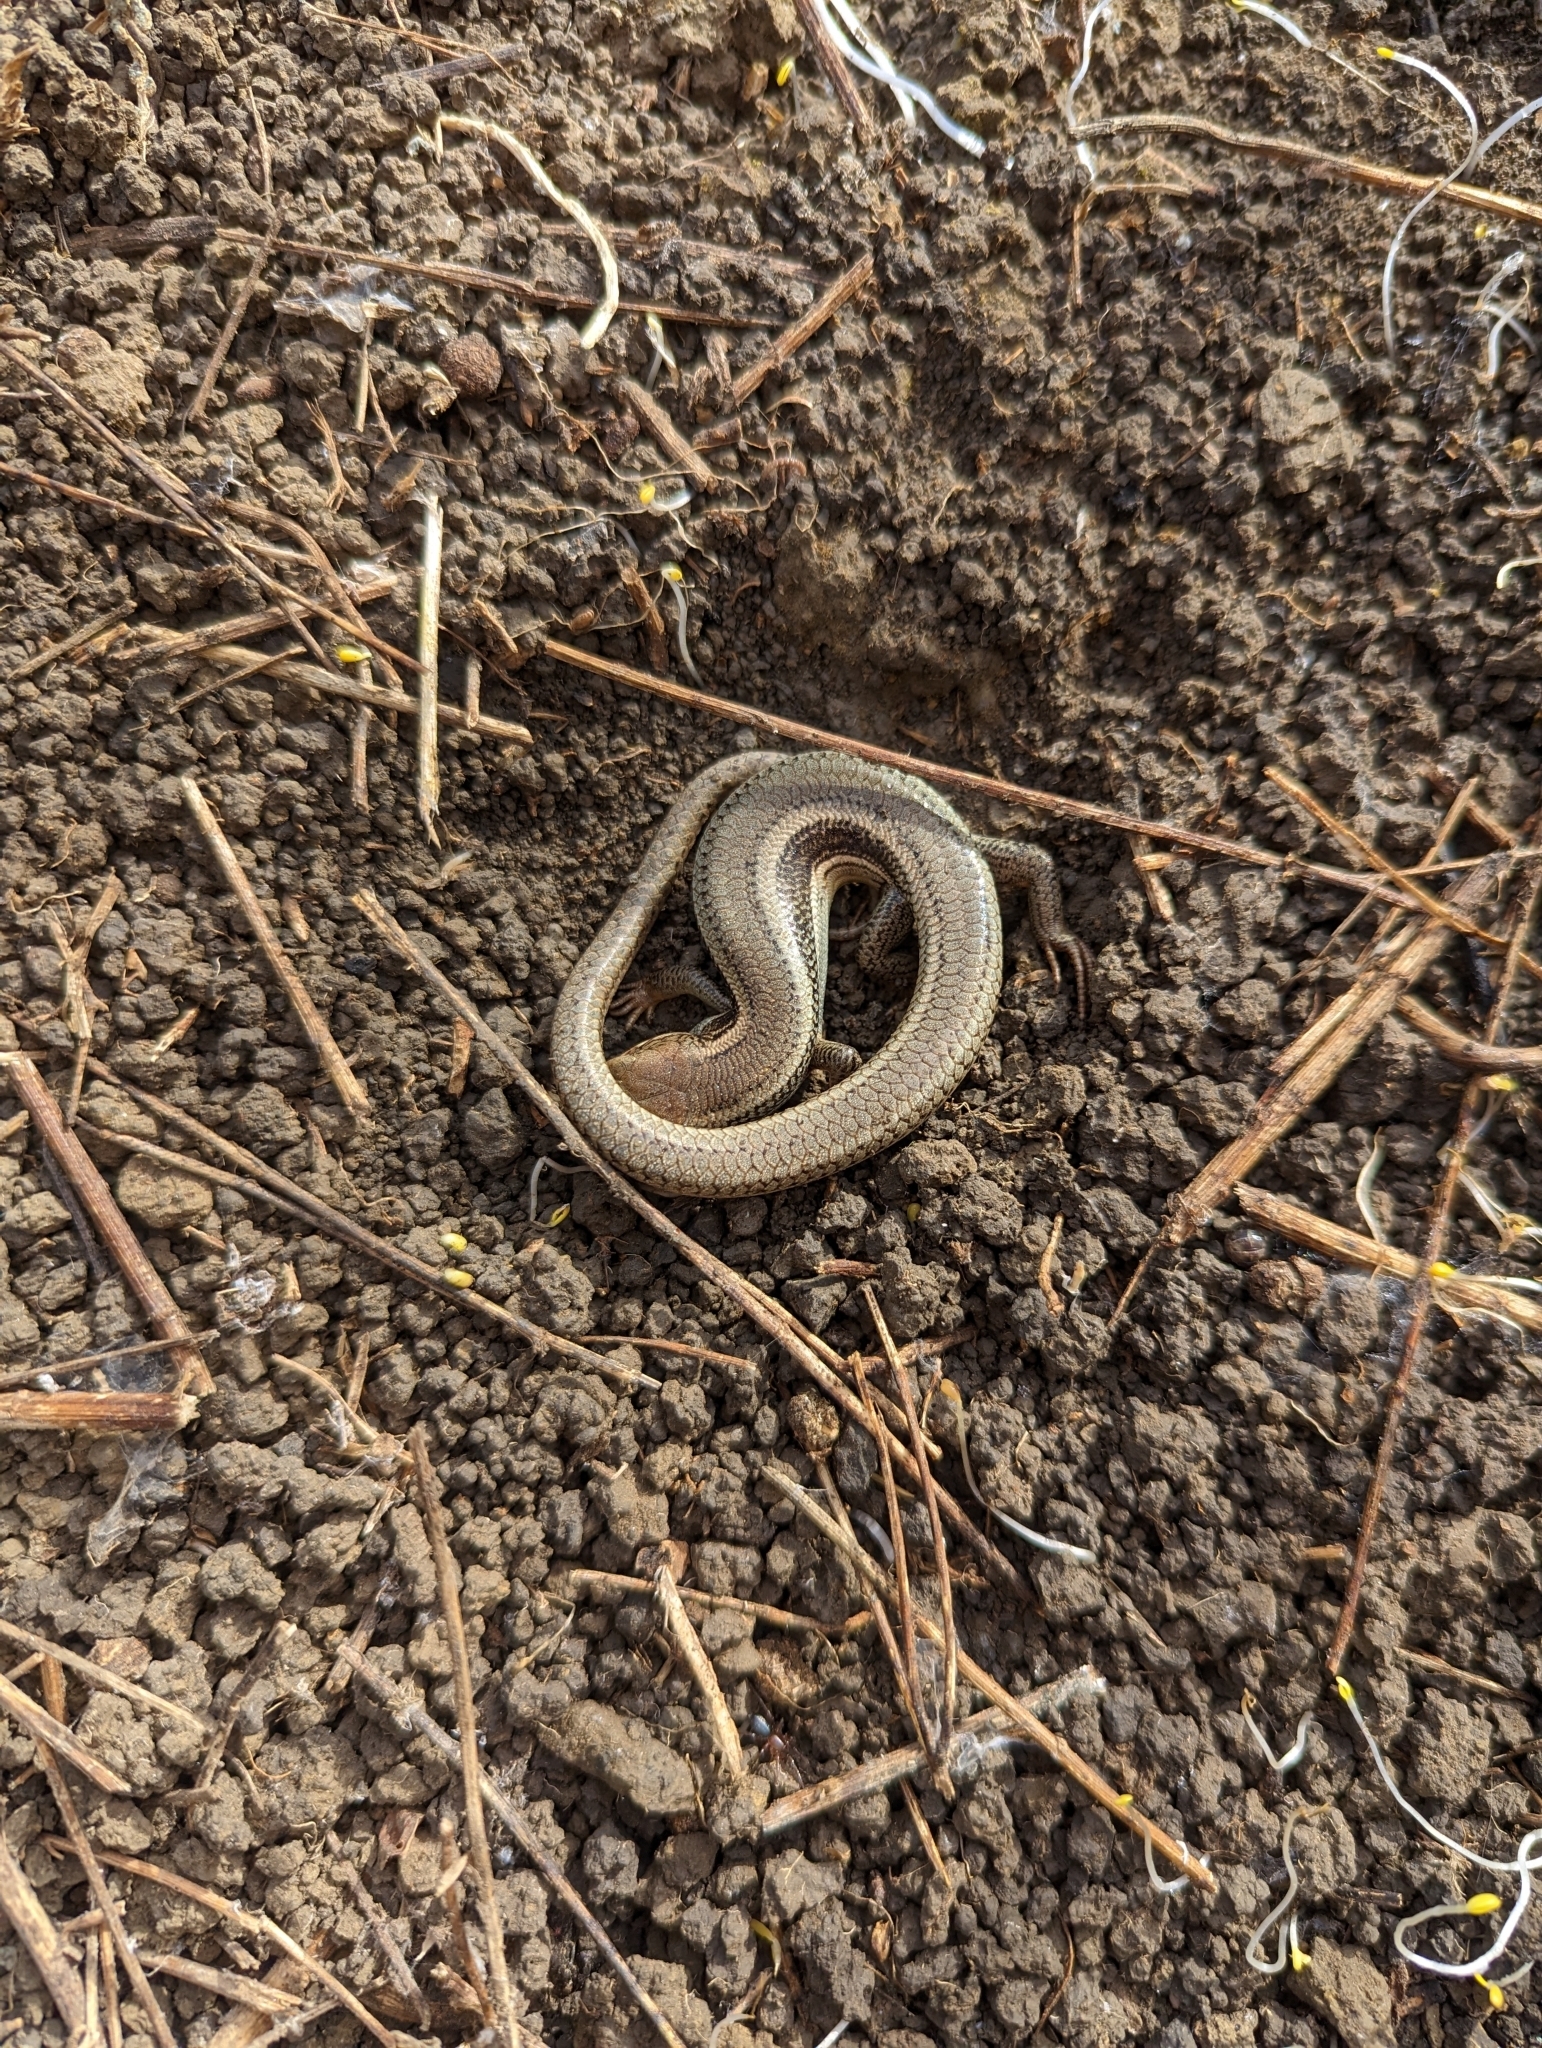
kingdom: Animalia
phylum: Chordata
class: Squamata
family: Scincidae
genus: Plestiodon
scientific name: Plestiodon skiltonianus
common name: Coronado island skink [interparietalis]
